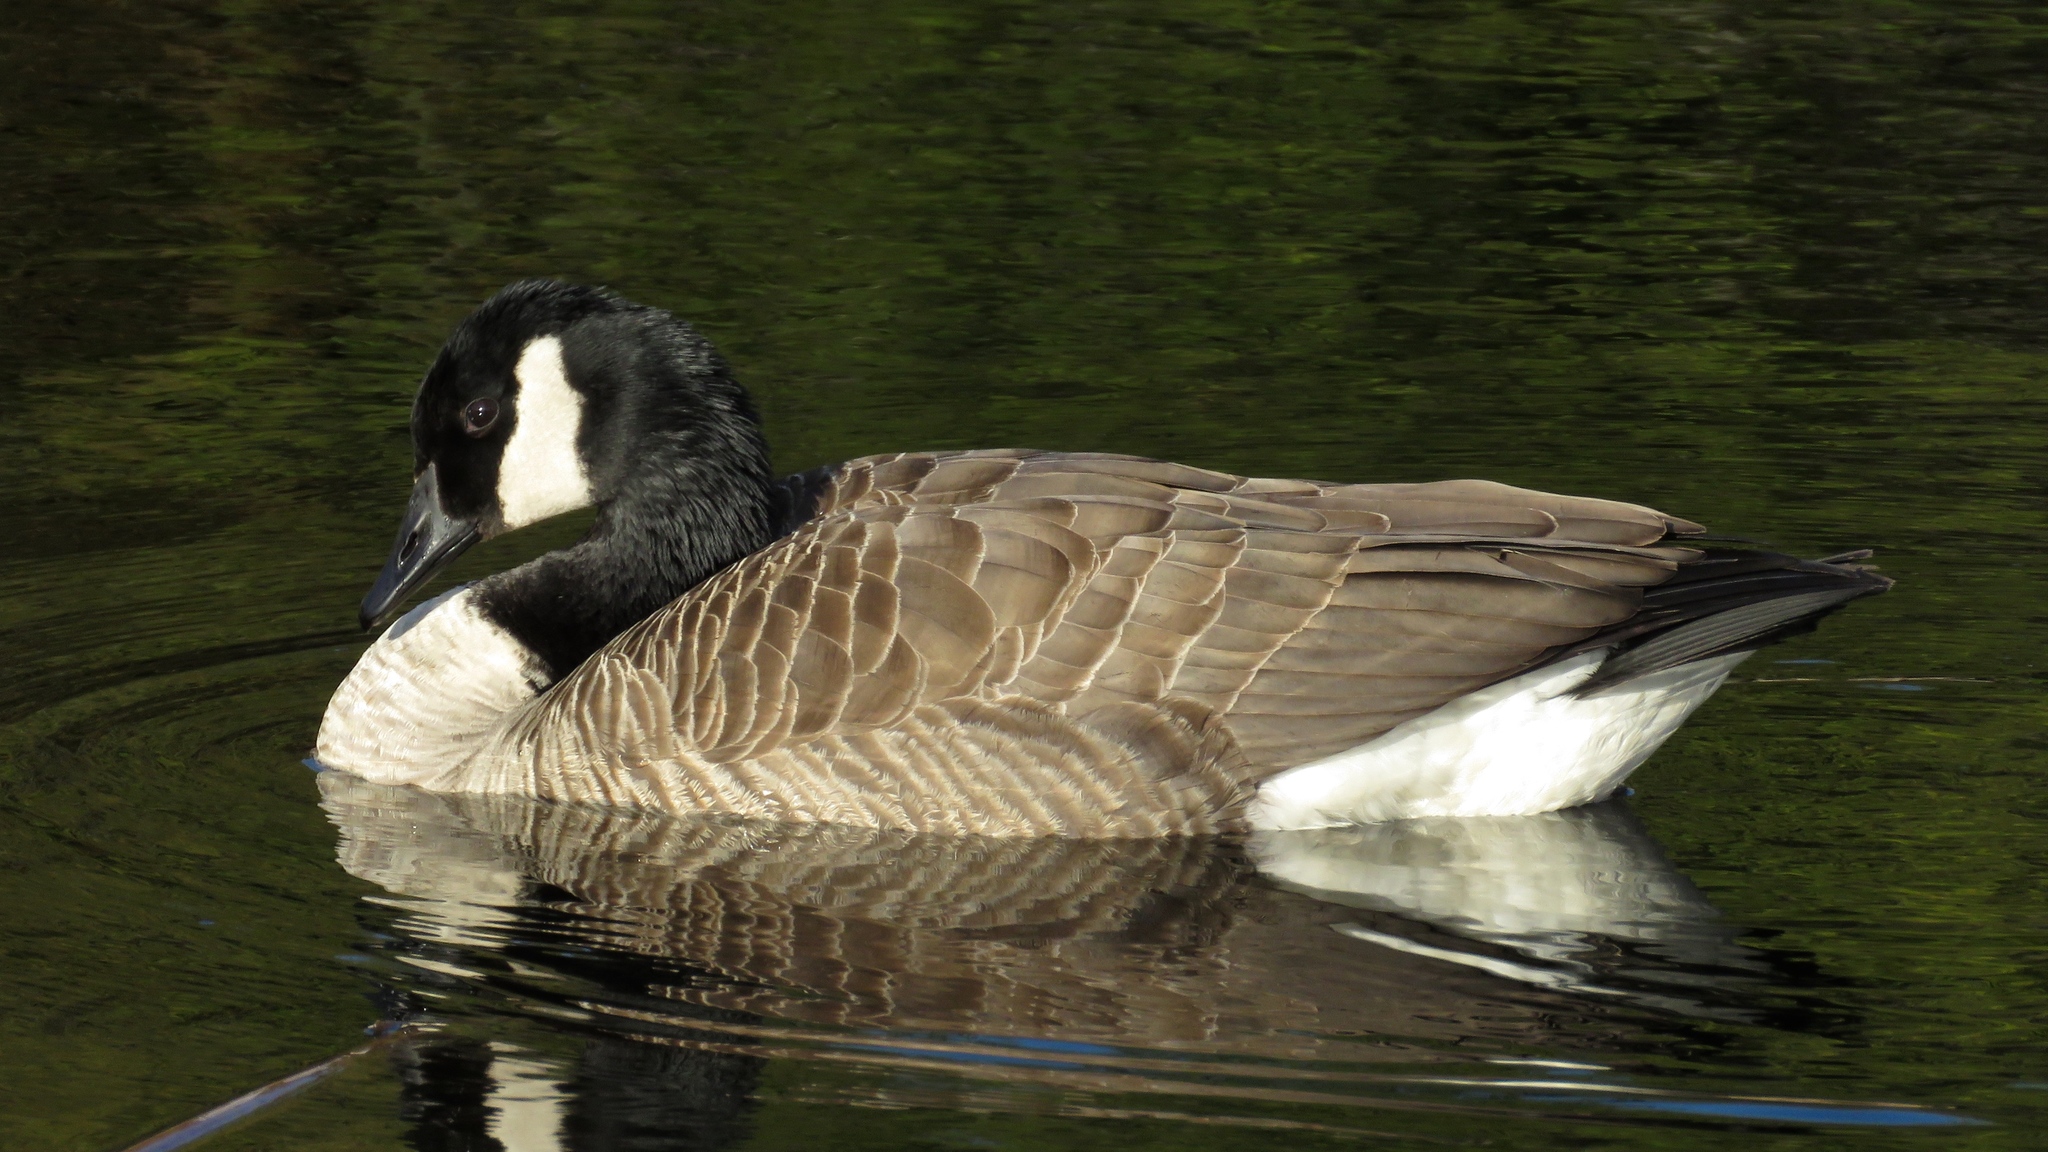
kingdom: Animalia
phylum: Chordata
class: Aves
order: Anseriformes
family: Anatidae
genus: Branta
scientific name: Branta canadensis
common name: Canada goose
